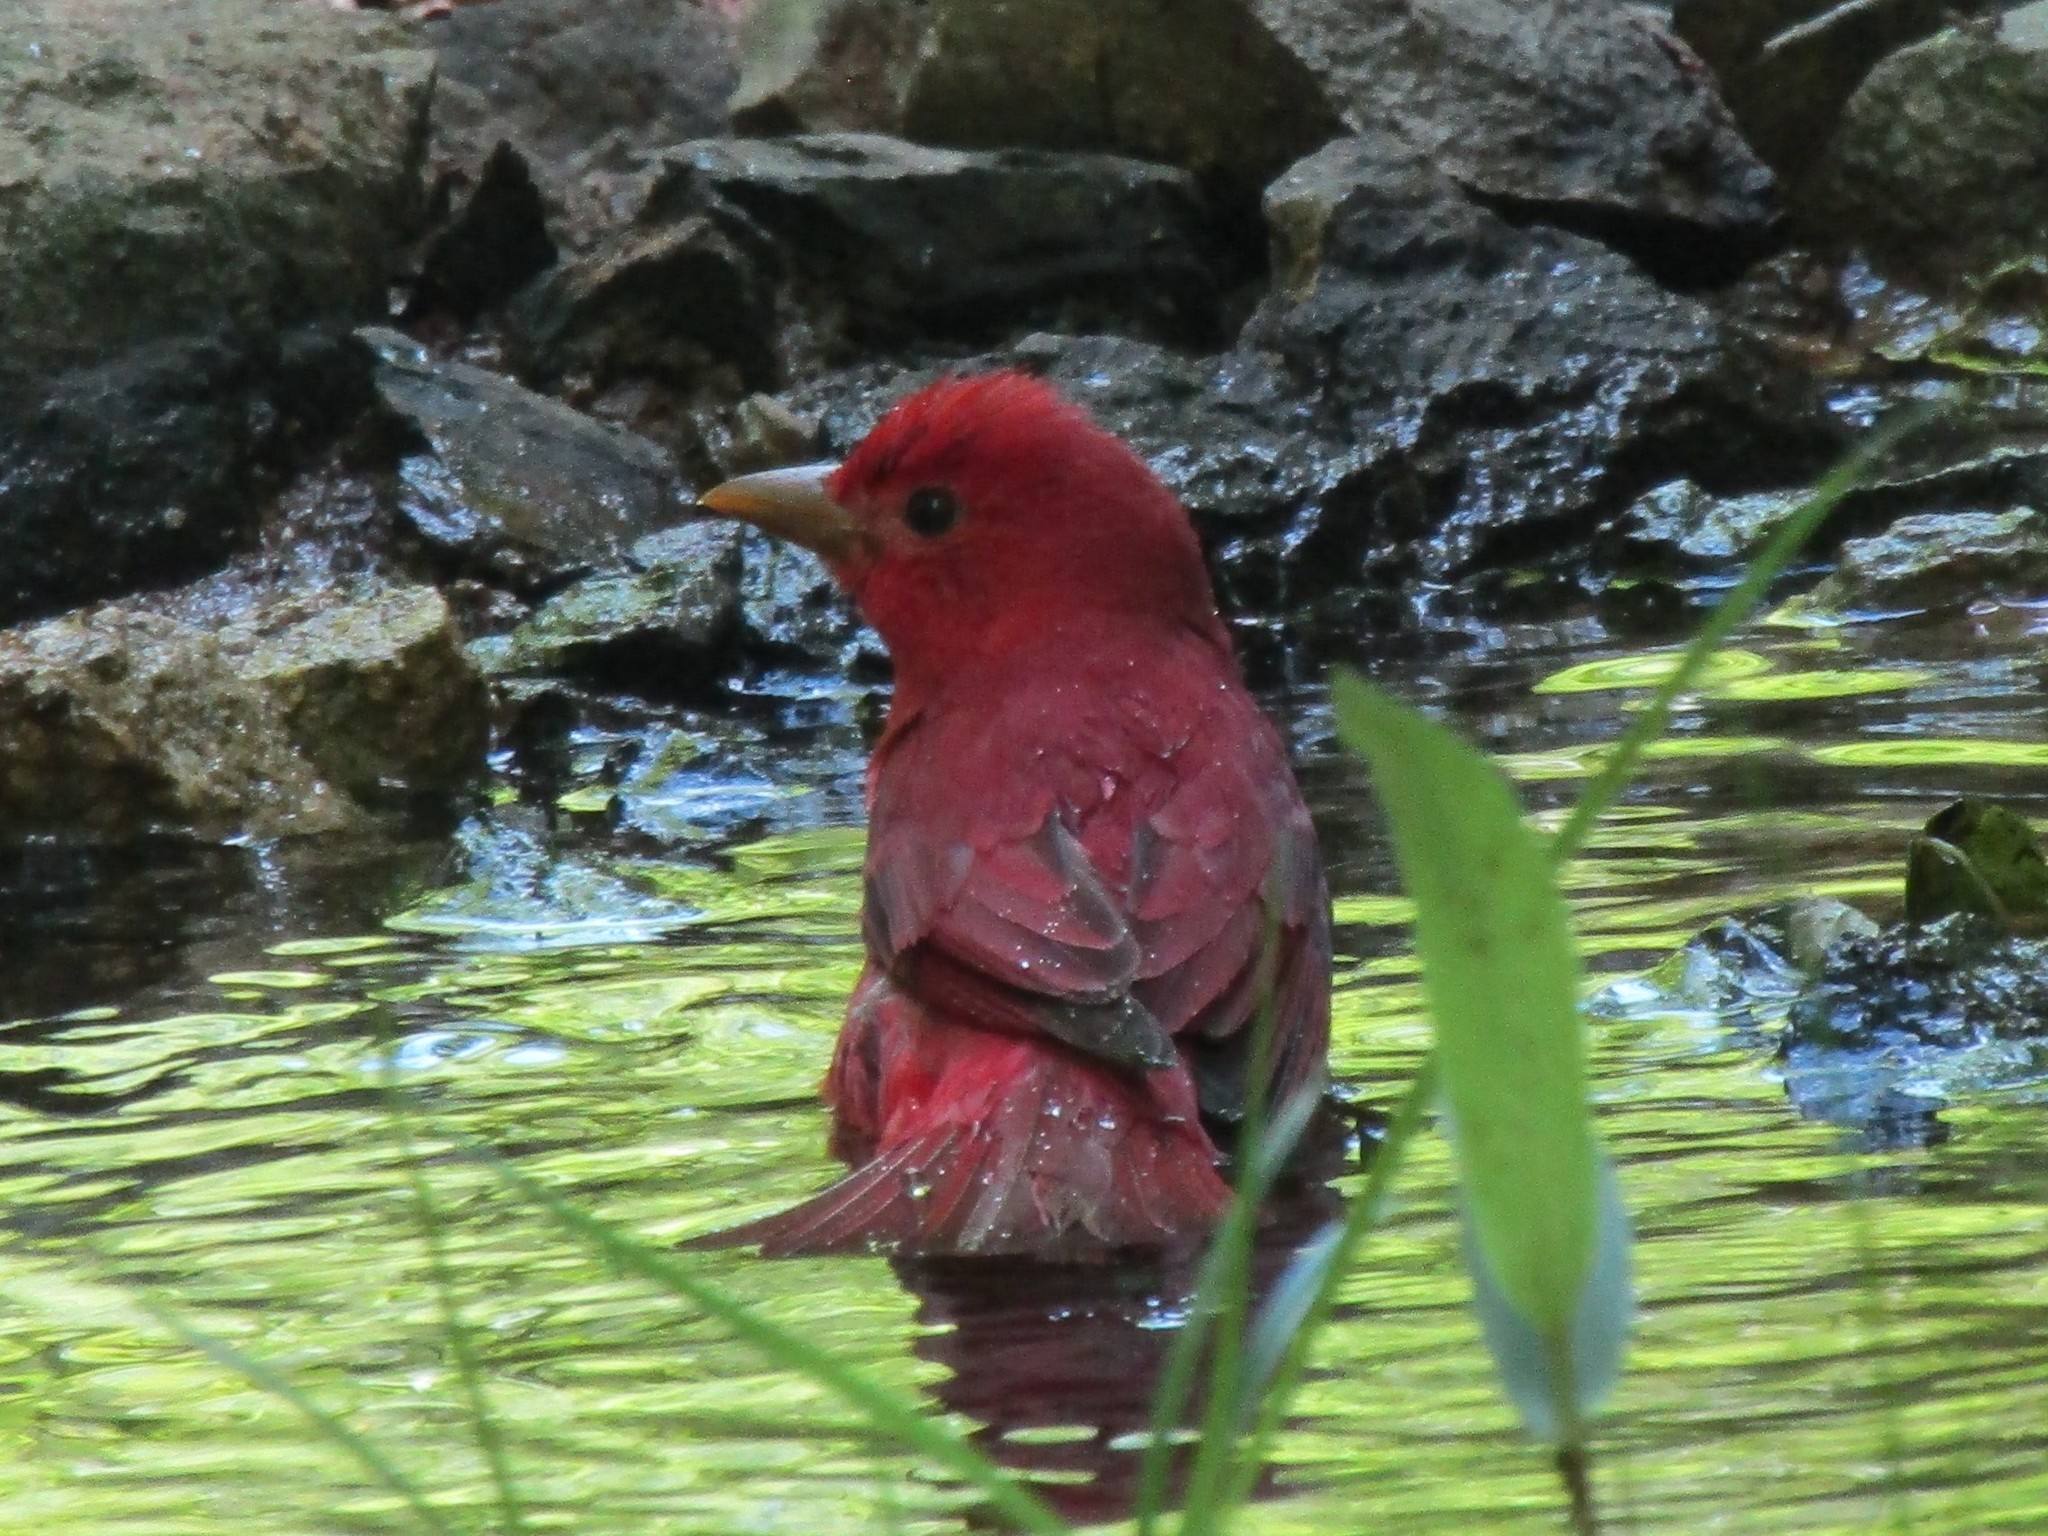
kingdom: Animalia
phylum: Chordata
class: Aves
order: Passeriformes
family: Cardinalidae
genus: Piranga
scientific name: Piranga rubra
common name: Summer tanager
